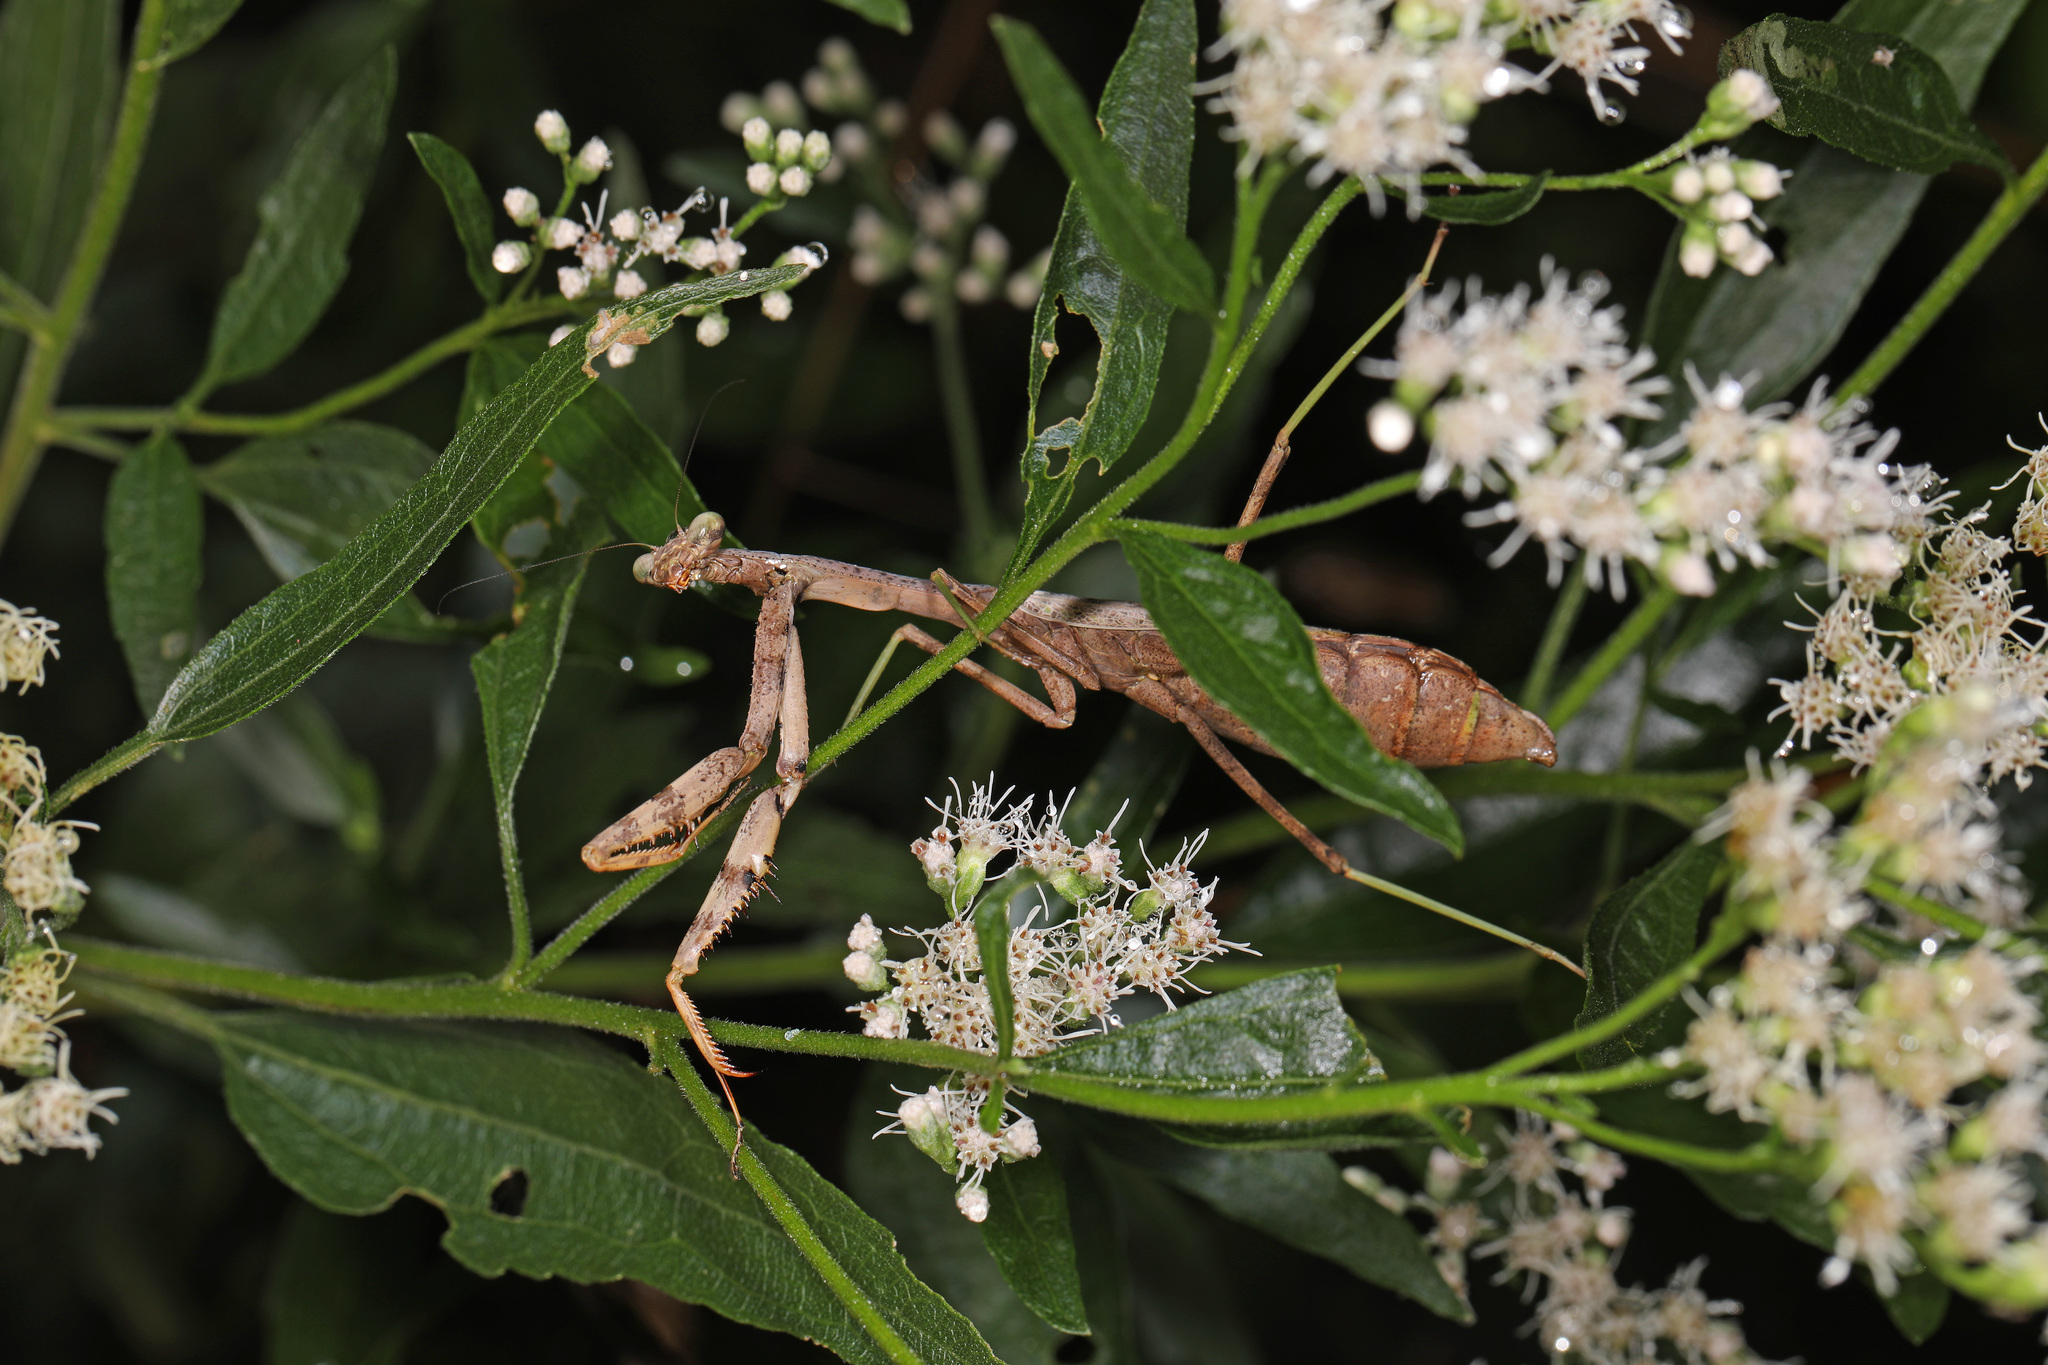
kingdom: Animalia
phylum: Arthropoda
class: Insecta
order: Mantodea
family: Mantidae
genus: Stagmomantis
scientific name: Stagmomantis carolina
